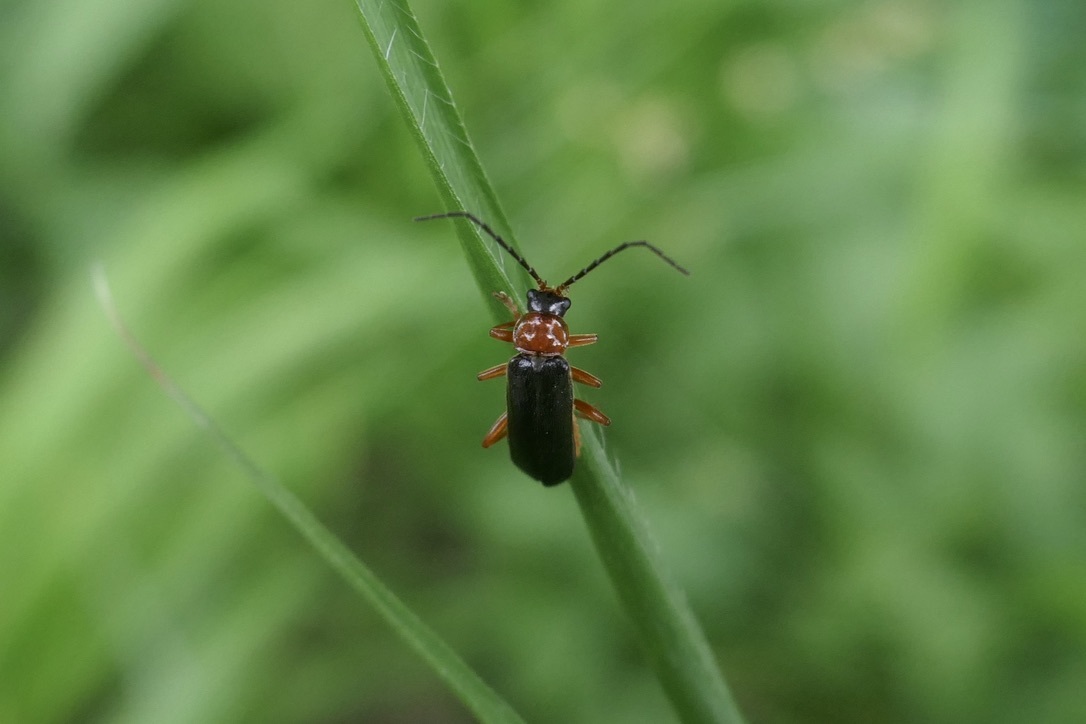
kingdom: Animalia
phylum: Arthropoda
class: Insecta
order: Coleoptera
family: Cantharidae
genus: Cantharis
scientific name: Cantharis flavilabris
